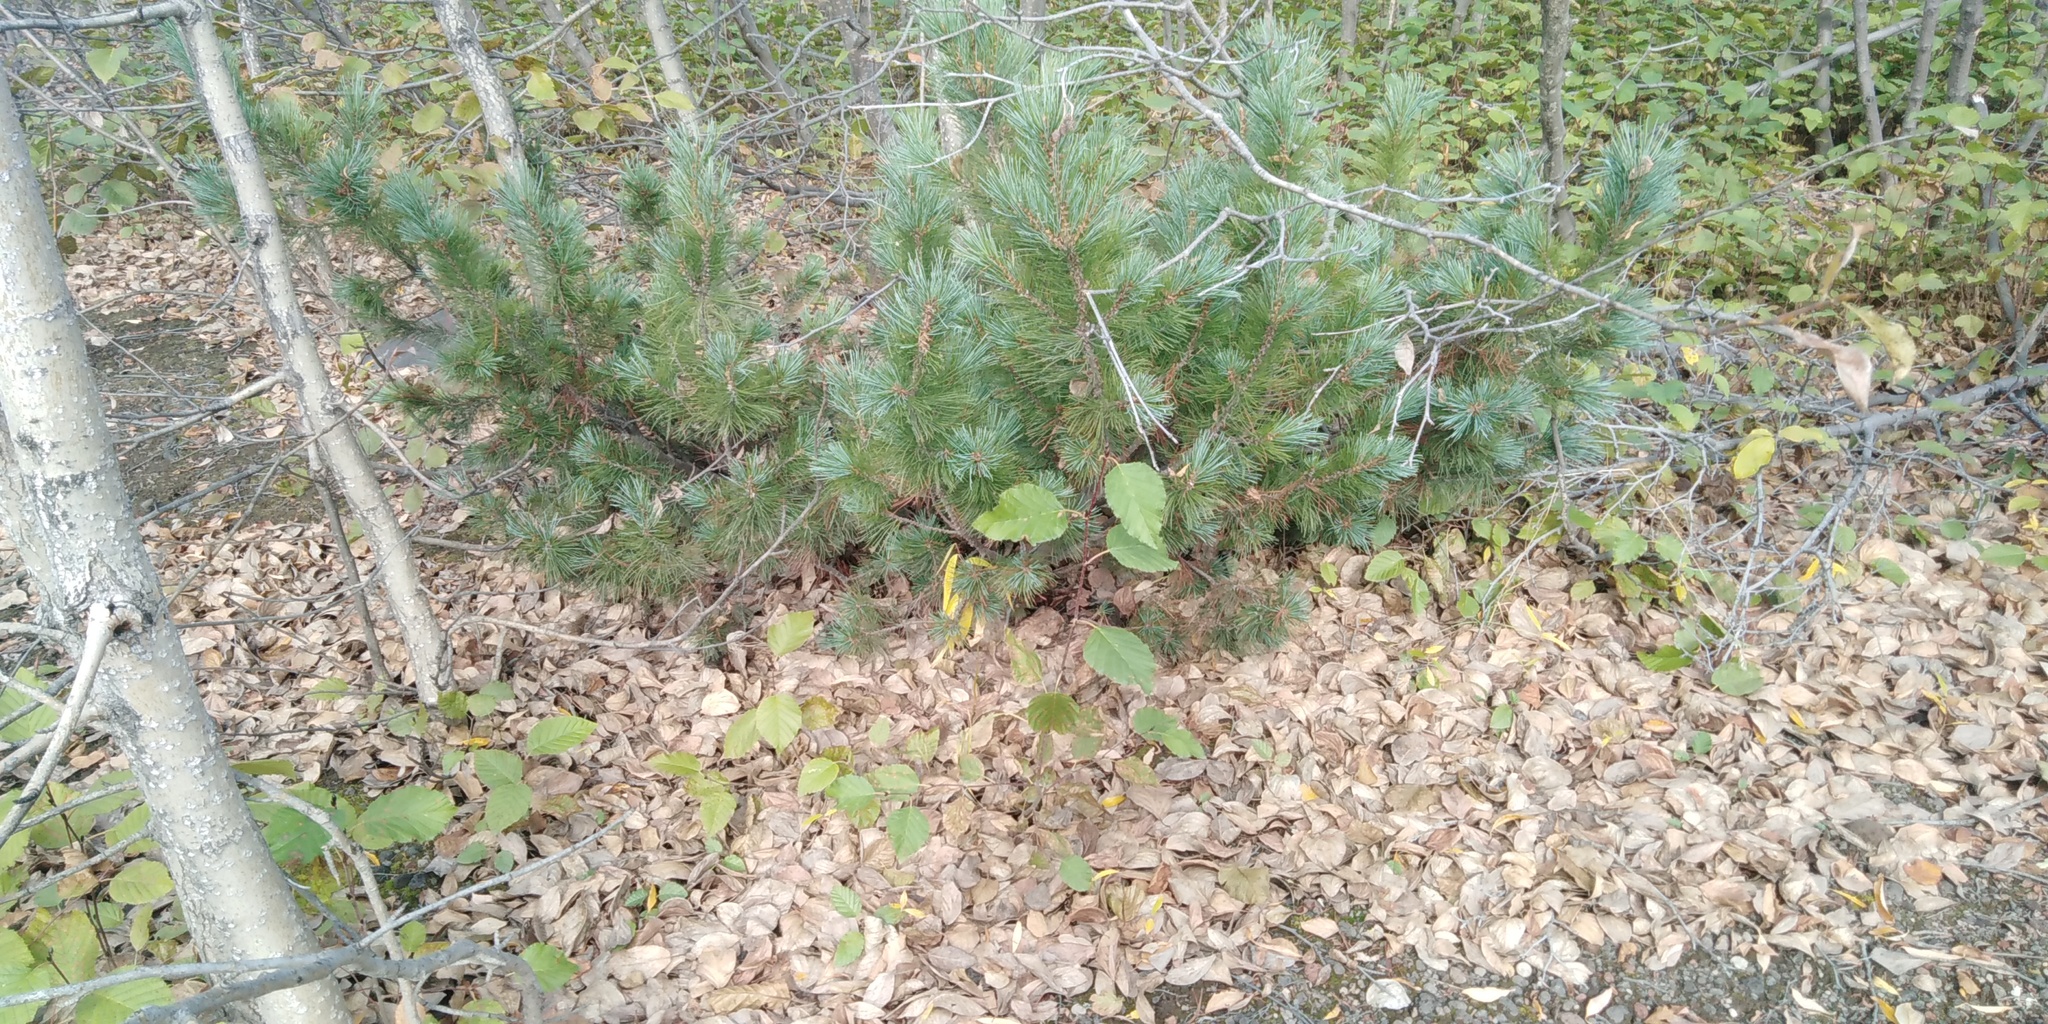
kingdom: Plantae
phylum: Tracheophyta
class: Pinopsida
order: Pinales
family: Pinaceae
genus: Pinus
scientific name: Pinus pumila
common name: Dwarf siberian pine
